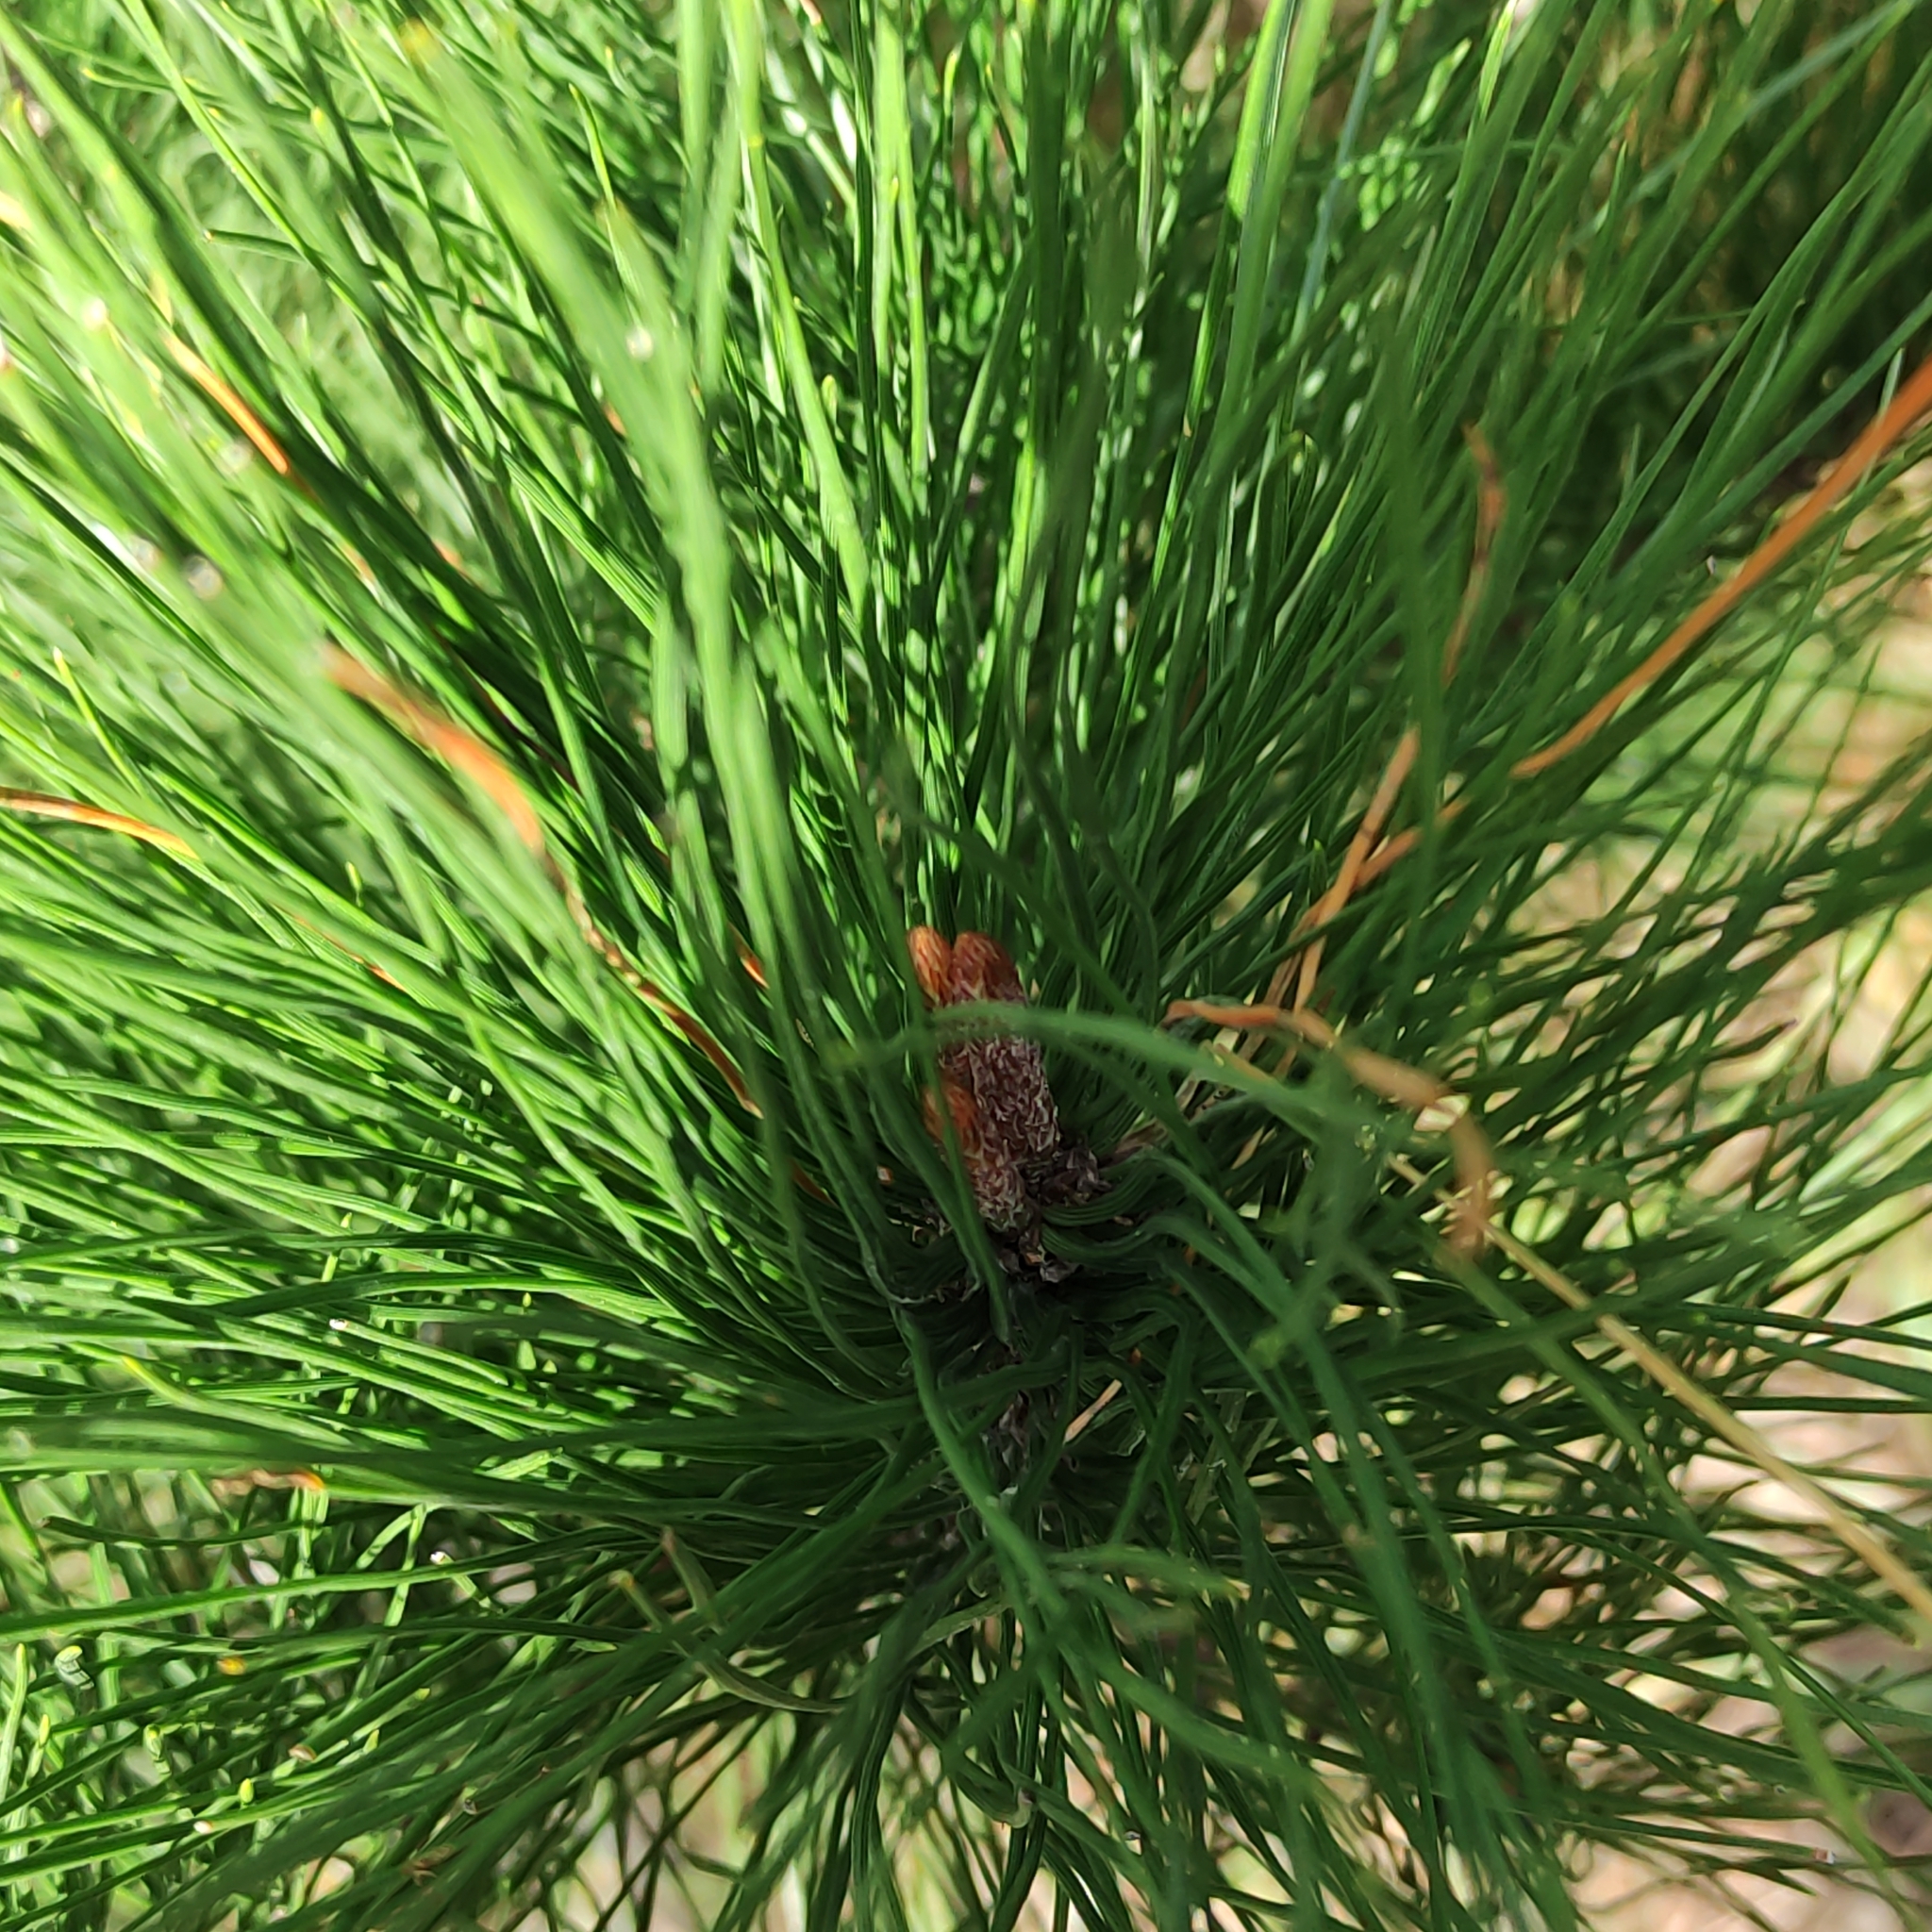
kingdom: Plantae
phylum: Tracheophyta
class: Pinopsida
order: Pinales
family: Pinaceae
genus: Pinus
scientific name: Pinus radiata
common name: Monterey pine
